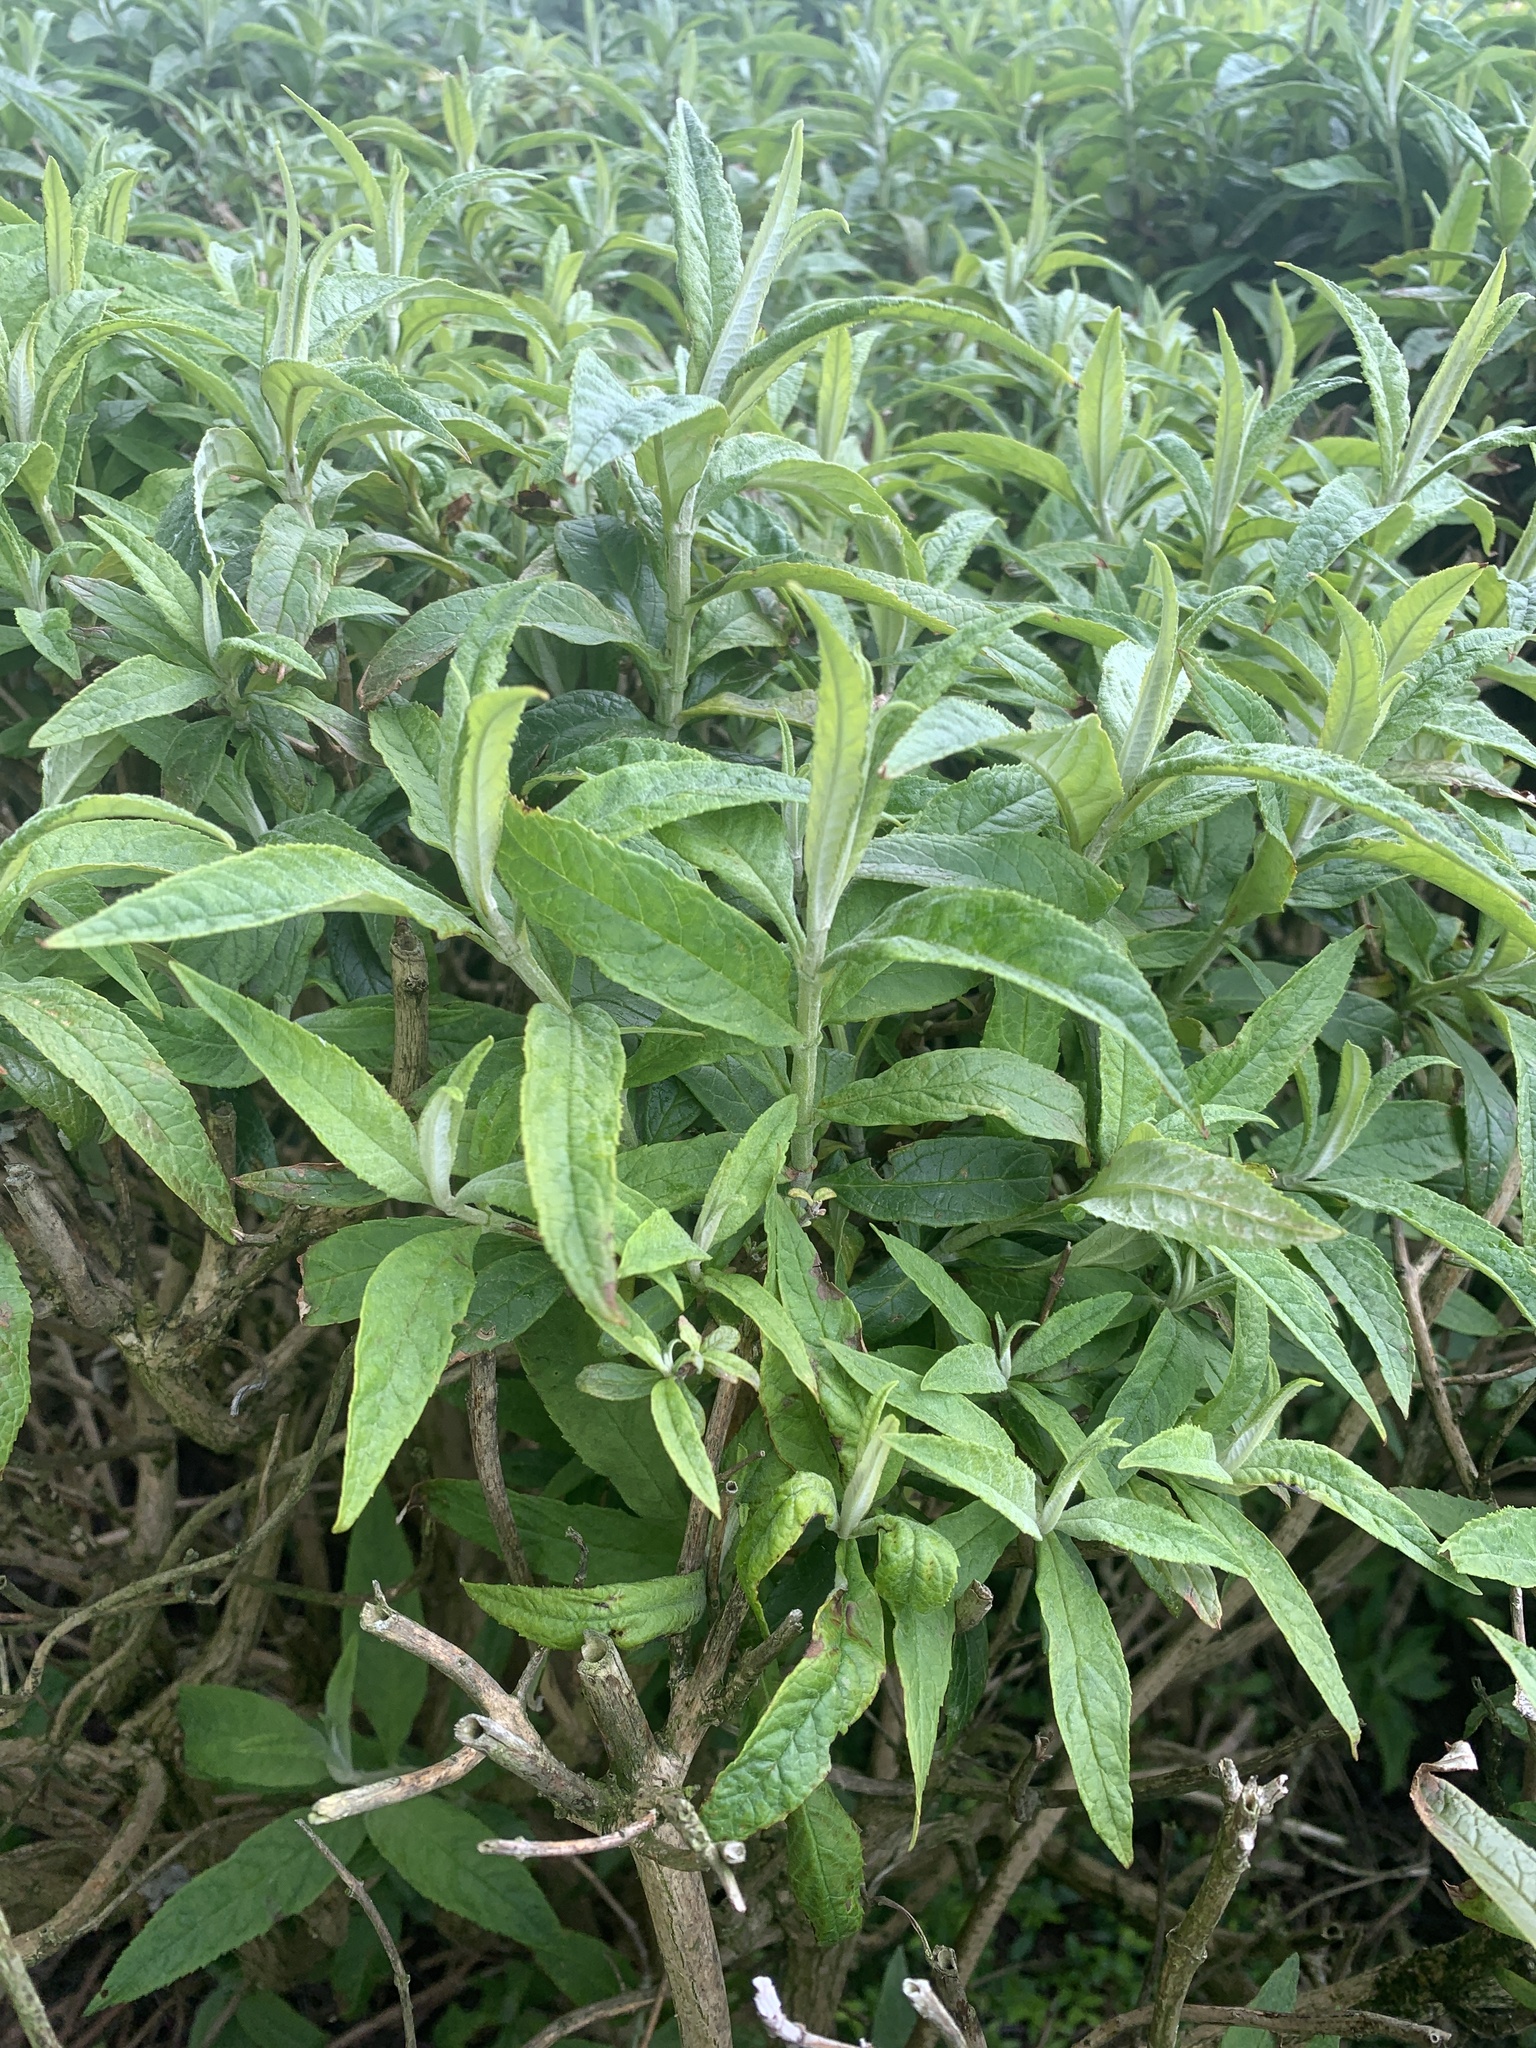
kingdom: Plantae
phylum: Tracheophyta
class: Magnoliopsida
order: Lamiales
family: Scrophulariaceae
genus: Buddleja
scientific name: Buddleja davidii
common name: Butterfly-bush
